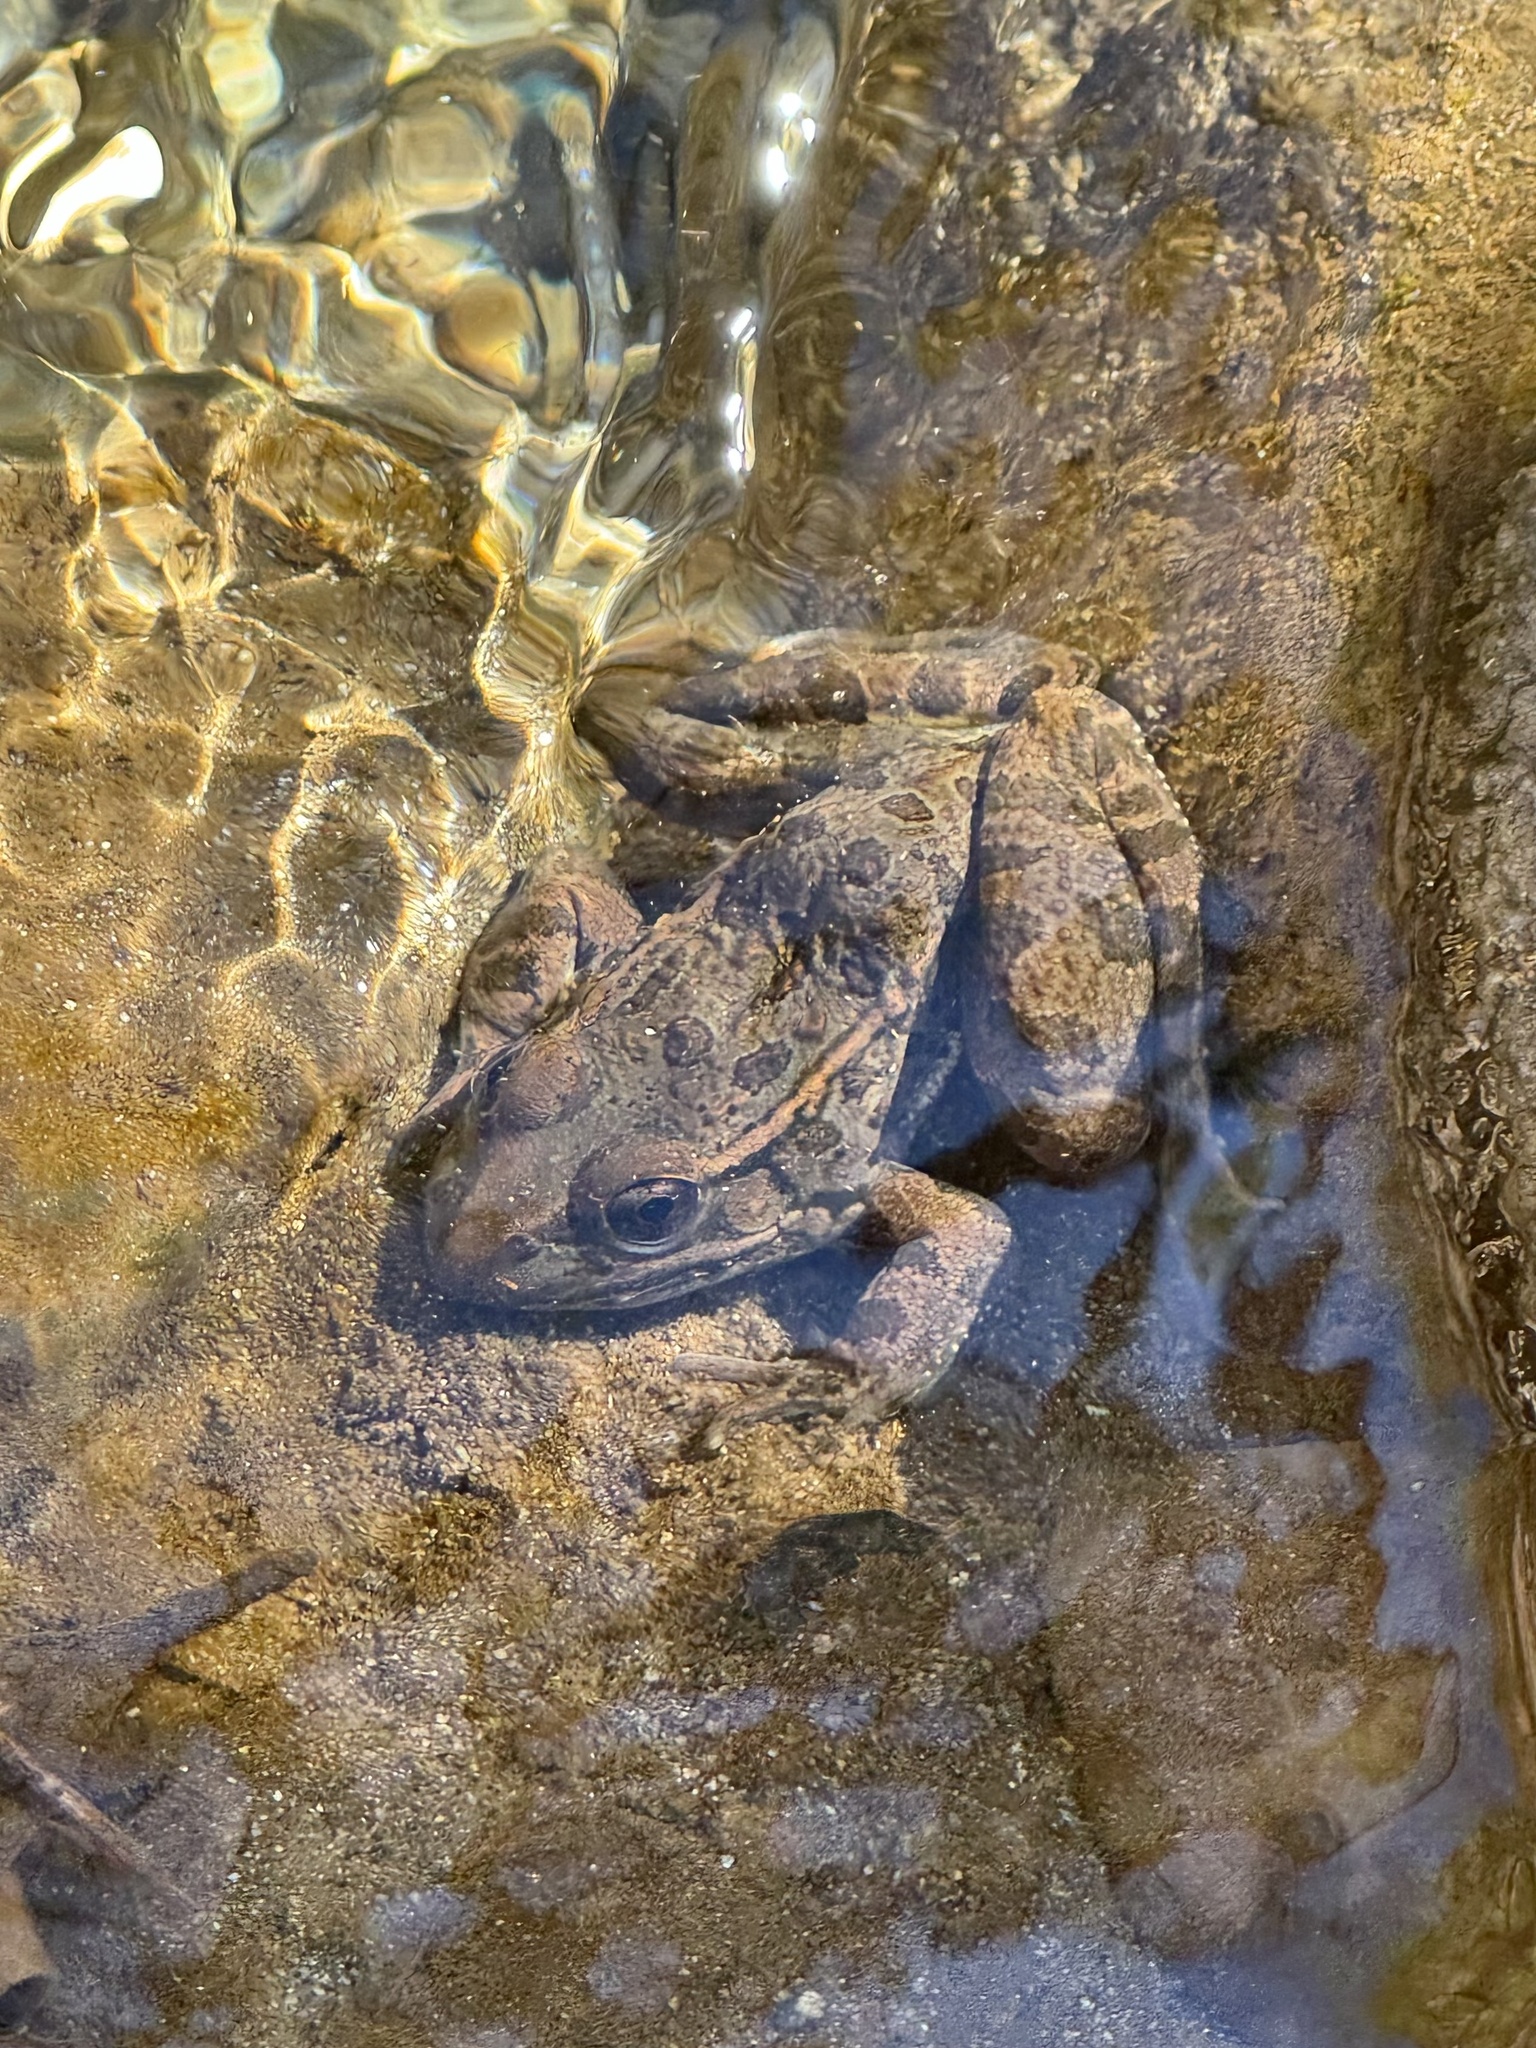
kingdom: Animalia
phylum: Chordata
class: Amphibia
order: Anura
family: Ranidae
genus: Lithobates
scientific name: Lithobates yavapaiensis
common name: Lowland leopard frog
